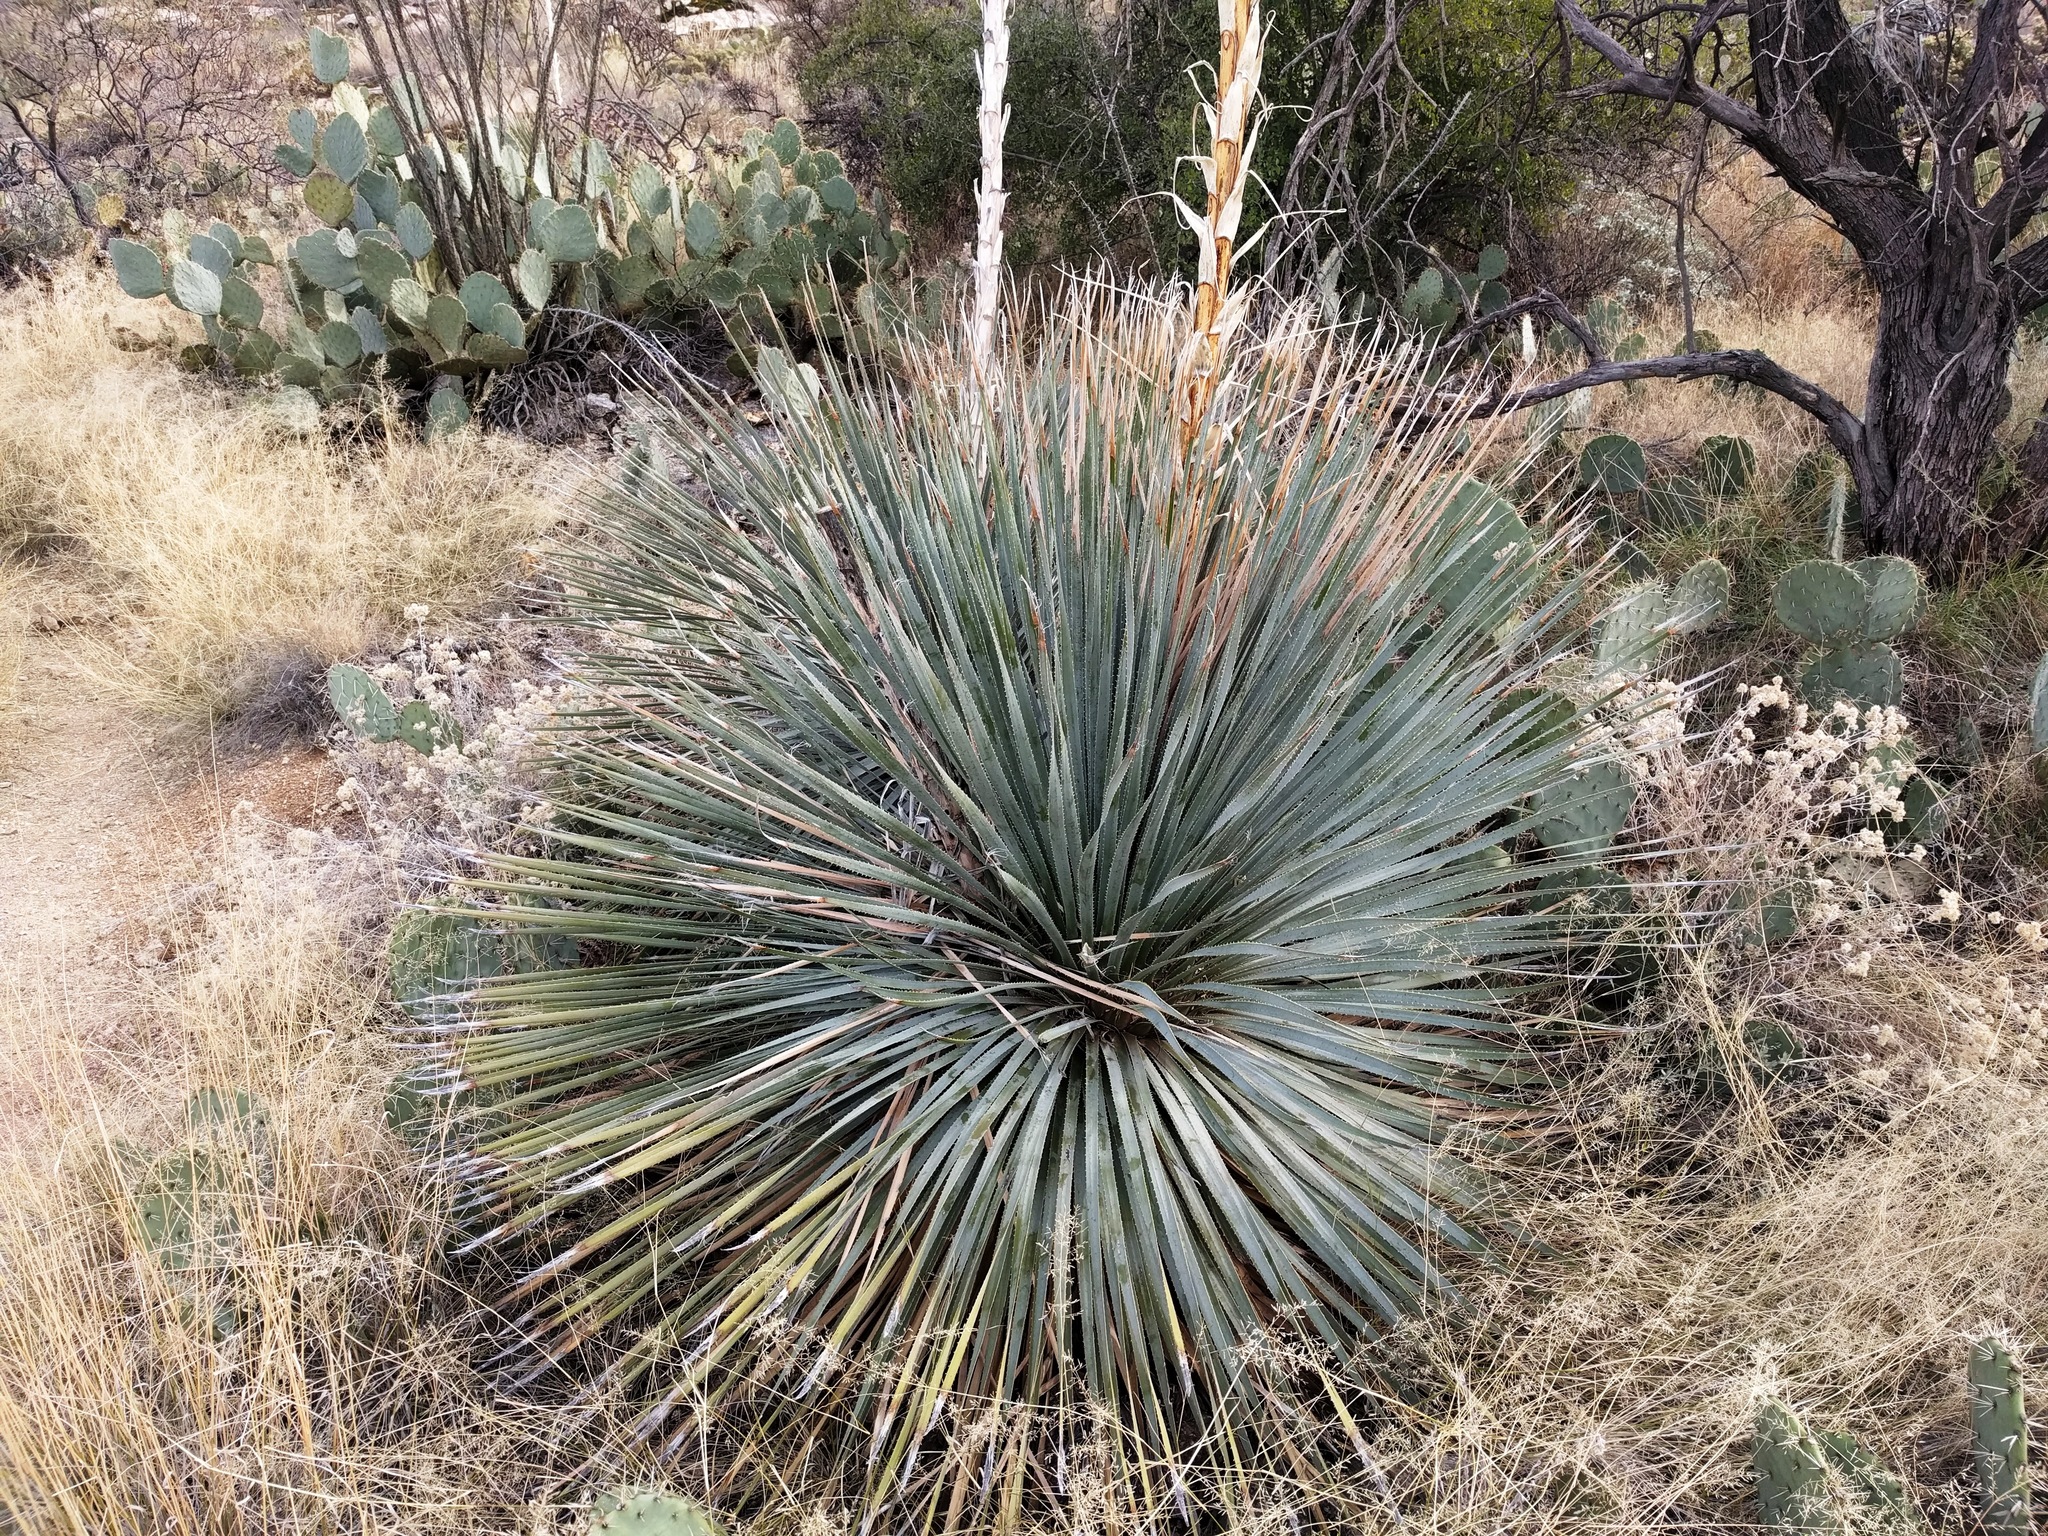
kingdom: Plantae
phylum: Tracheophyta
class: Liliopsida
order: Asparagales
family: Asparagaceae
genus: Dasylirion
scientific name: Dasylirion wheeleri
